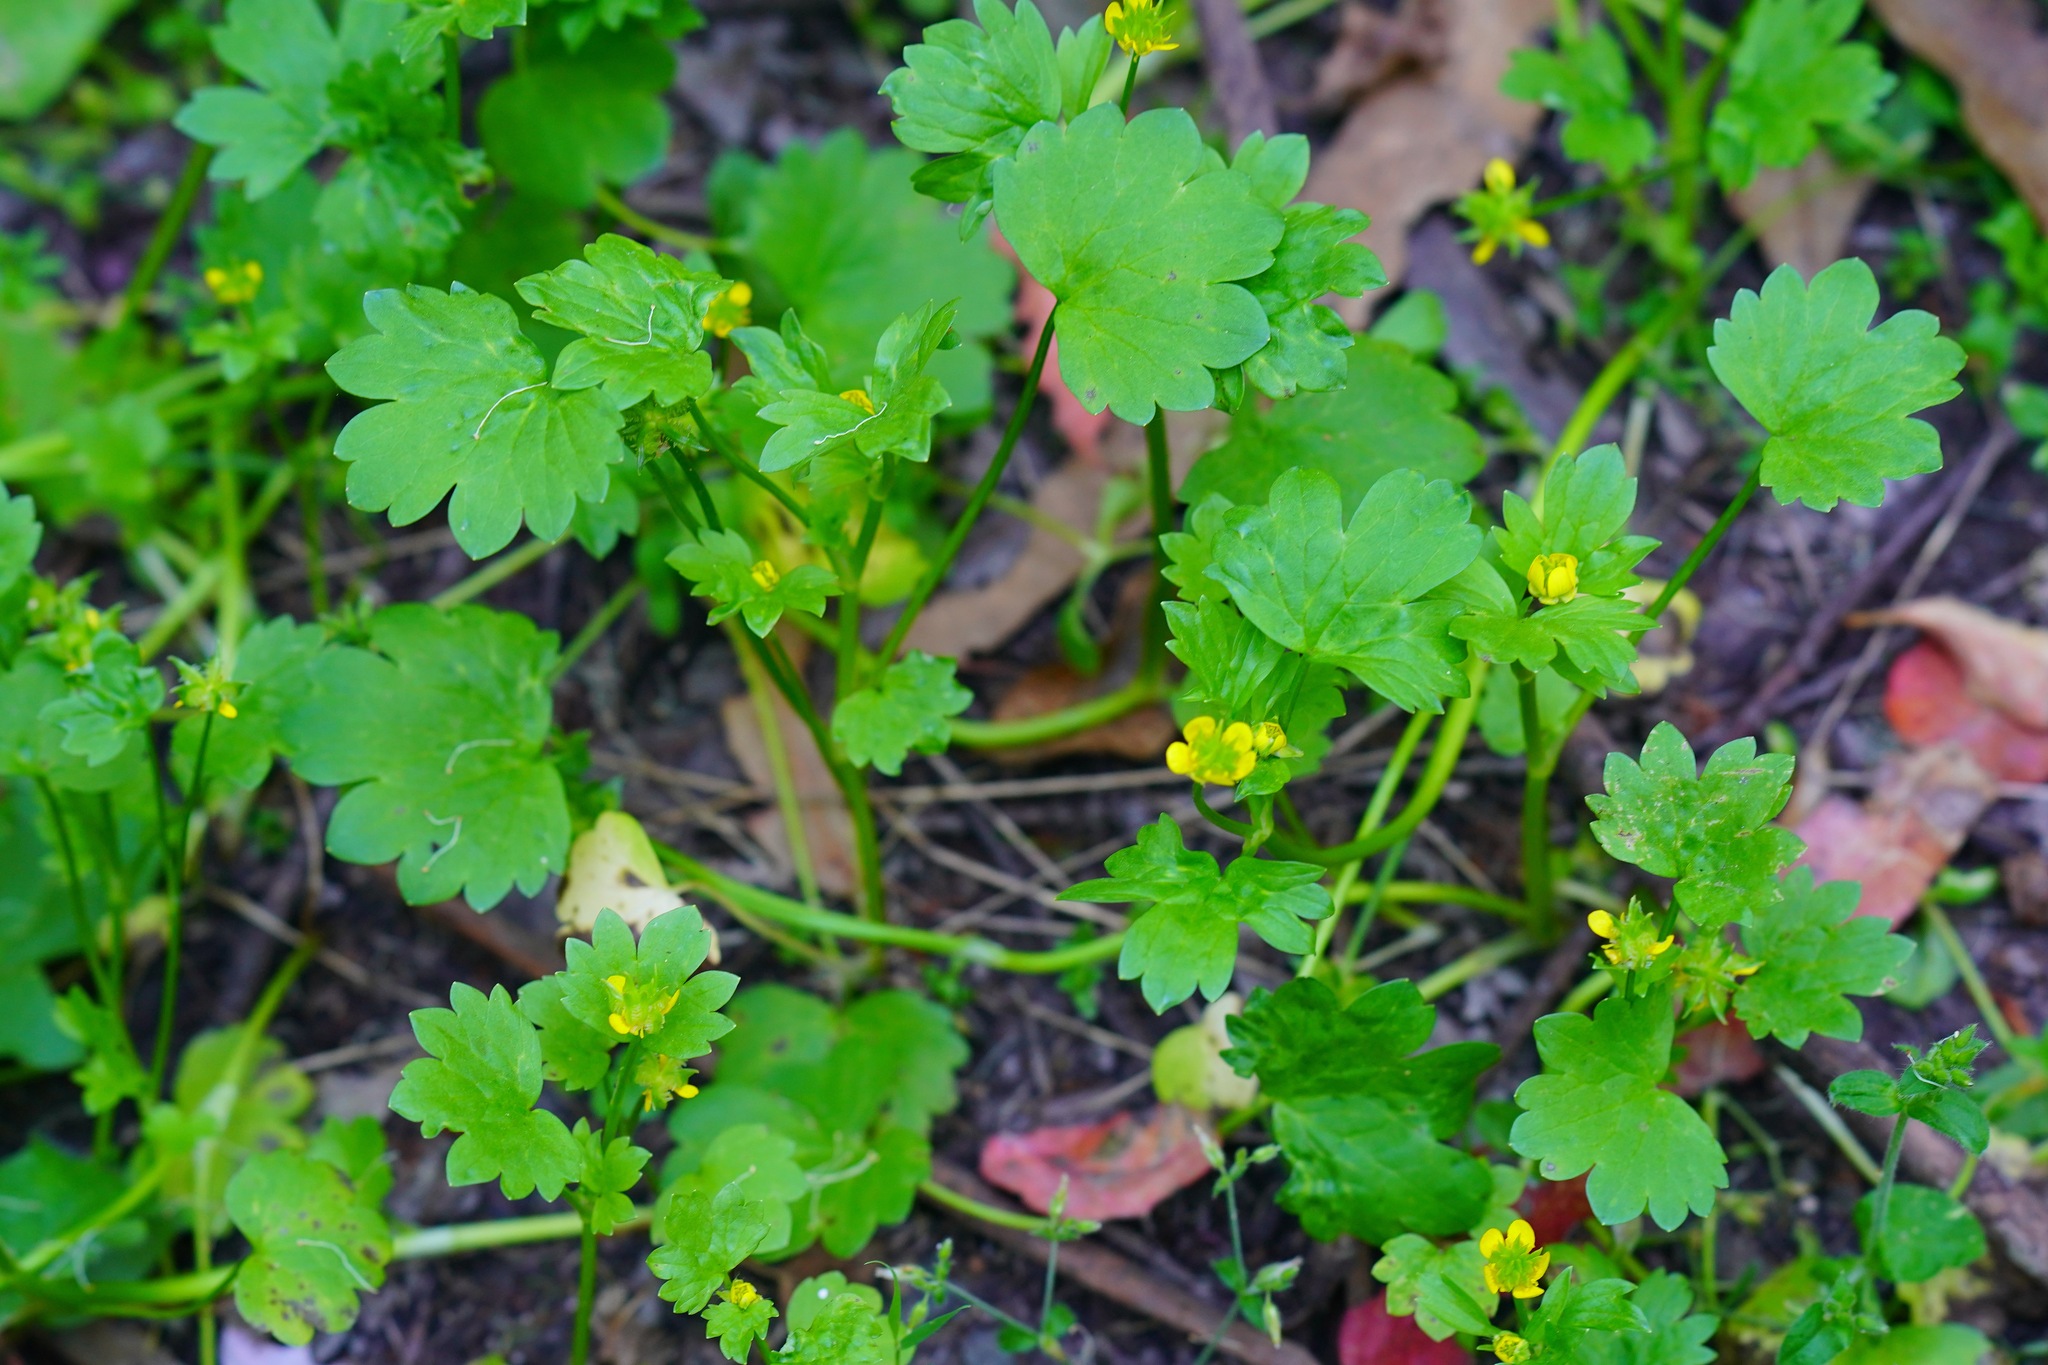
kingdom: Plantae
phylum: Tracheophyta
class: Magnoliopsida
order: Ranunculales
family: Ranunculaceae
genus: Ranunculus
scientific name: Ranunculus muricatus
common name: Rough-fruited buttercup
